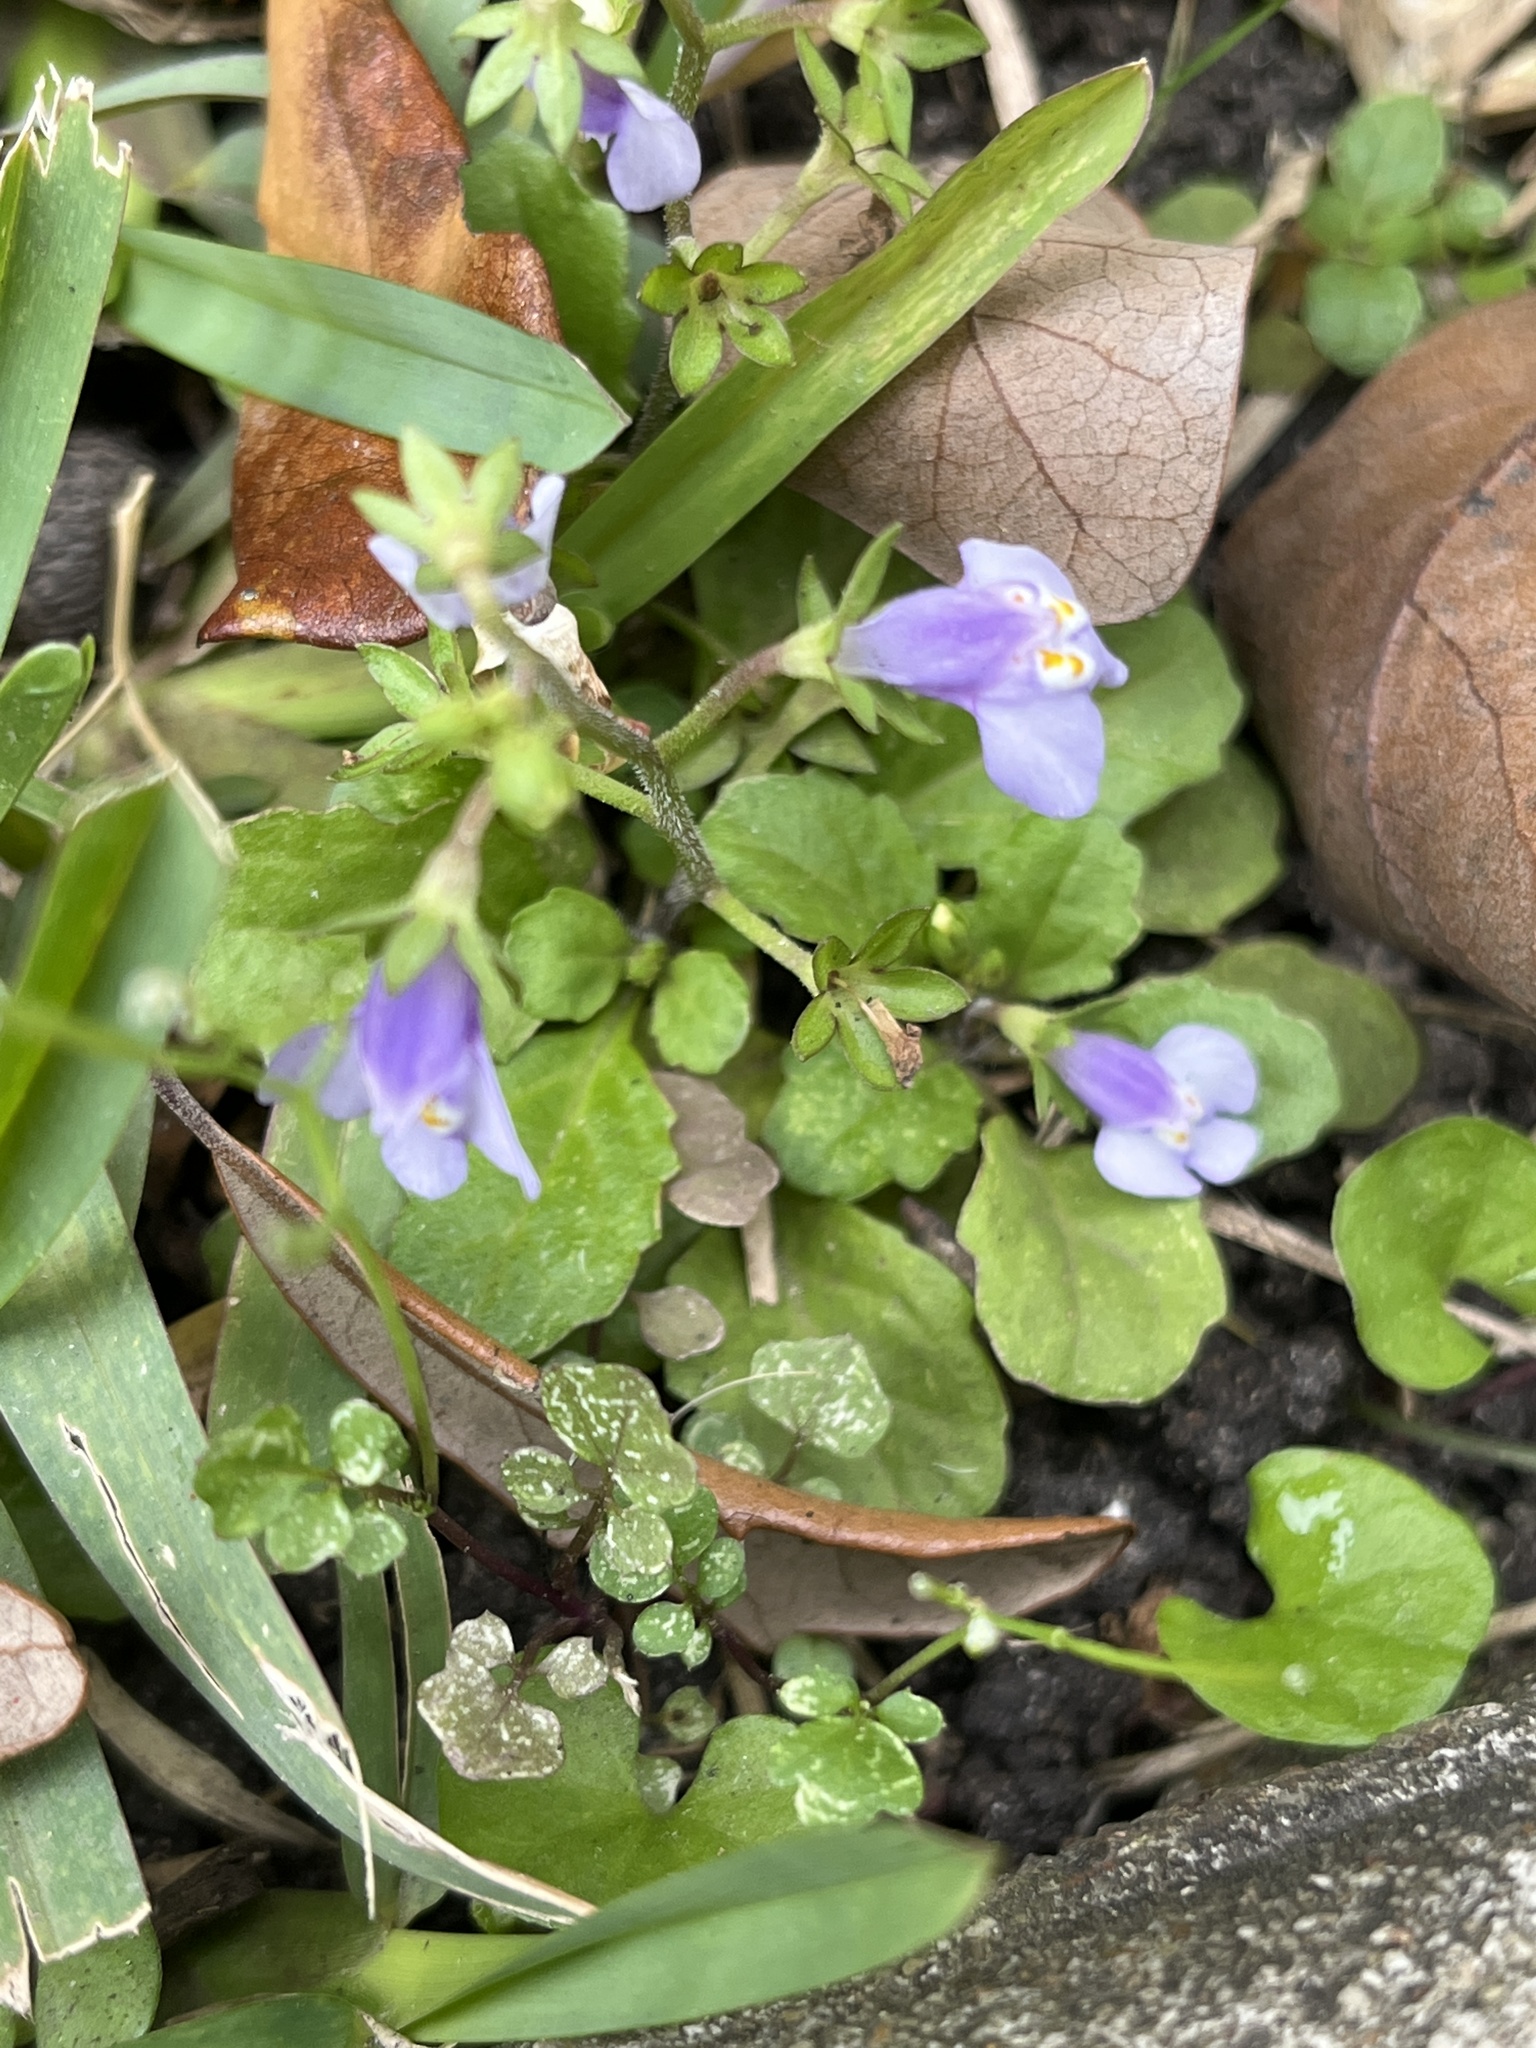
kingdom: Plantae
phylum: Tracheophyta
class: Magnoliopsida
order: Lamiales
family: Mazaceae
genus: Mazus
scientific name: Mazus pumilus
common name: Japanese mazus
